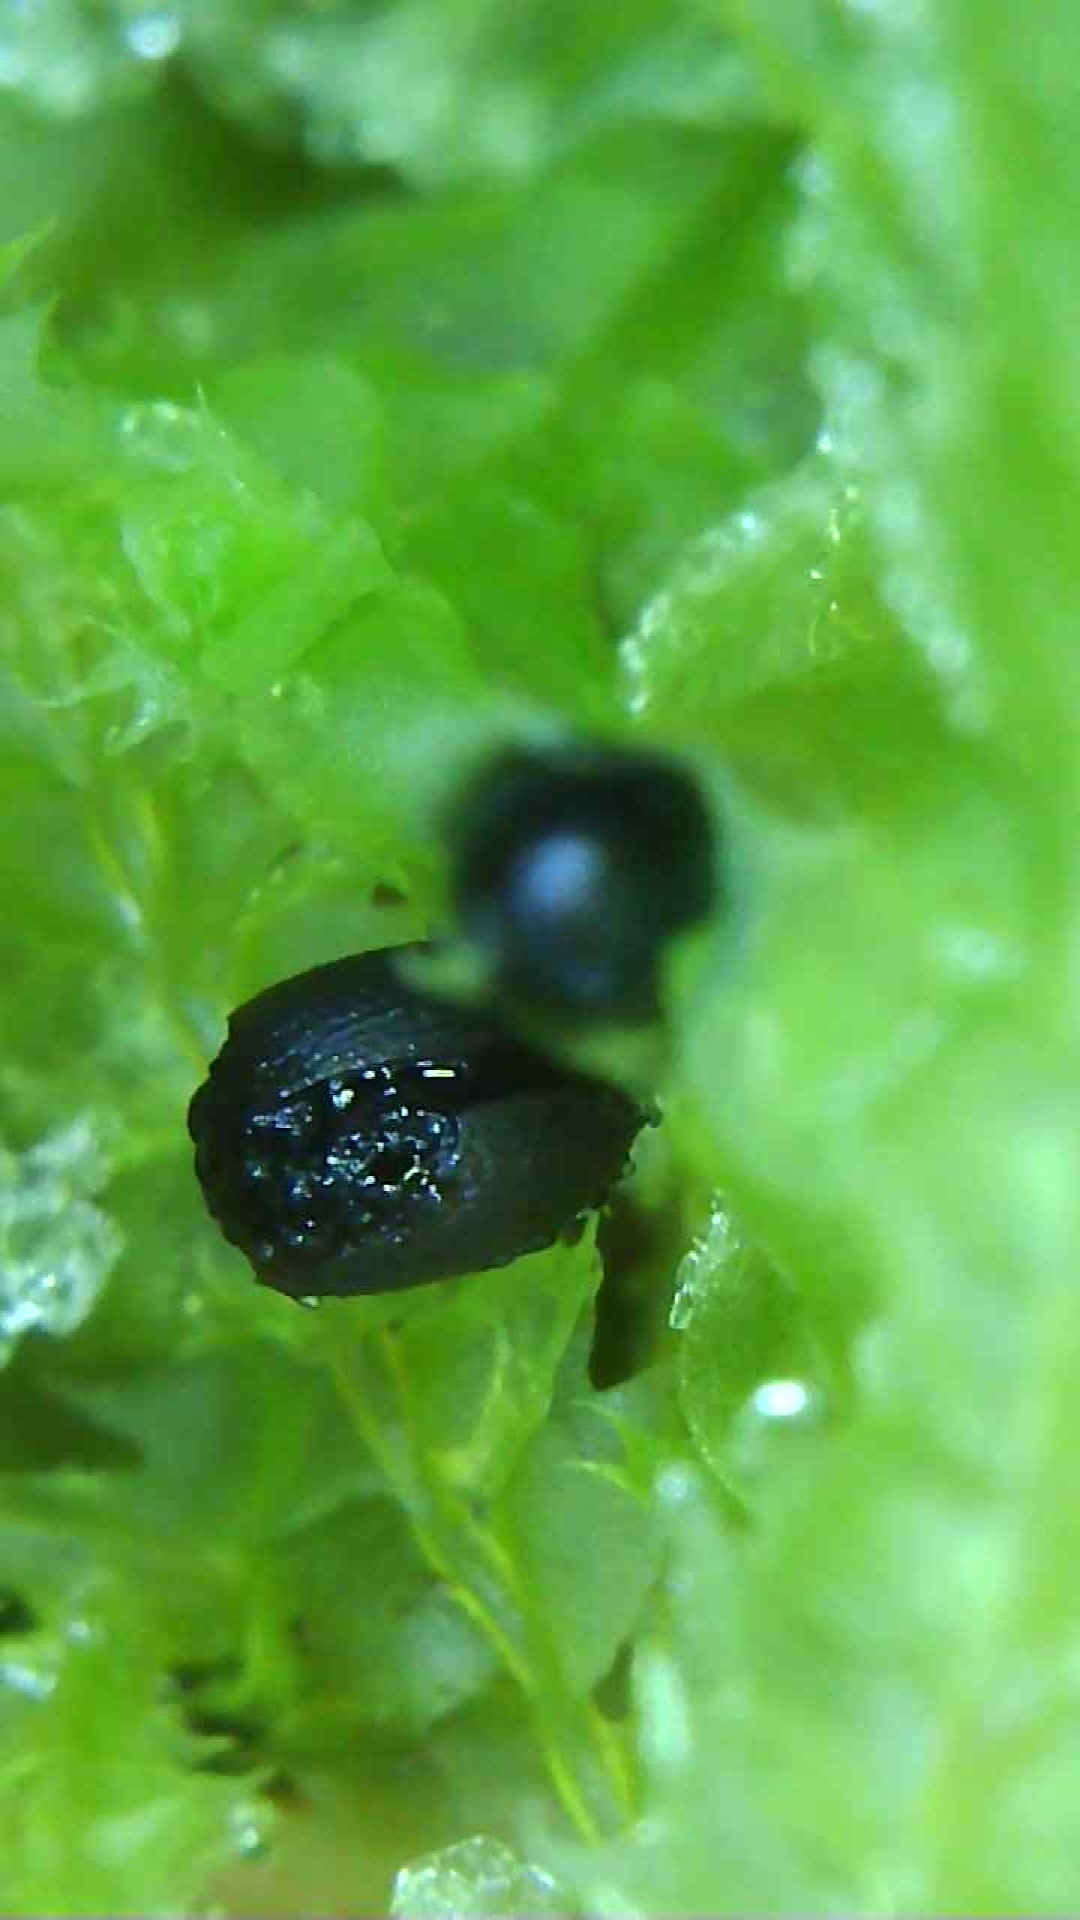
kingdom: Plantae
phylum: Marchantiophyta
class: Jungermanniopsida
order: Jungermanniales
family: Lophocoleaceae
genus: Lophocolea
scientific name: Lophocolea bidentata
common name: Bifid crestwort
